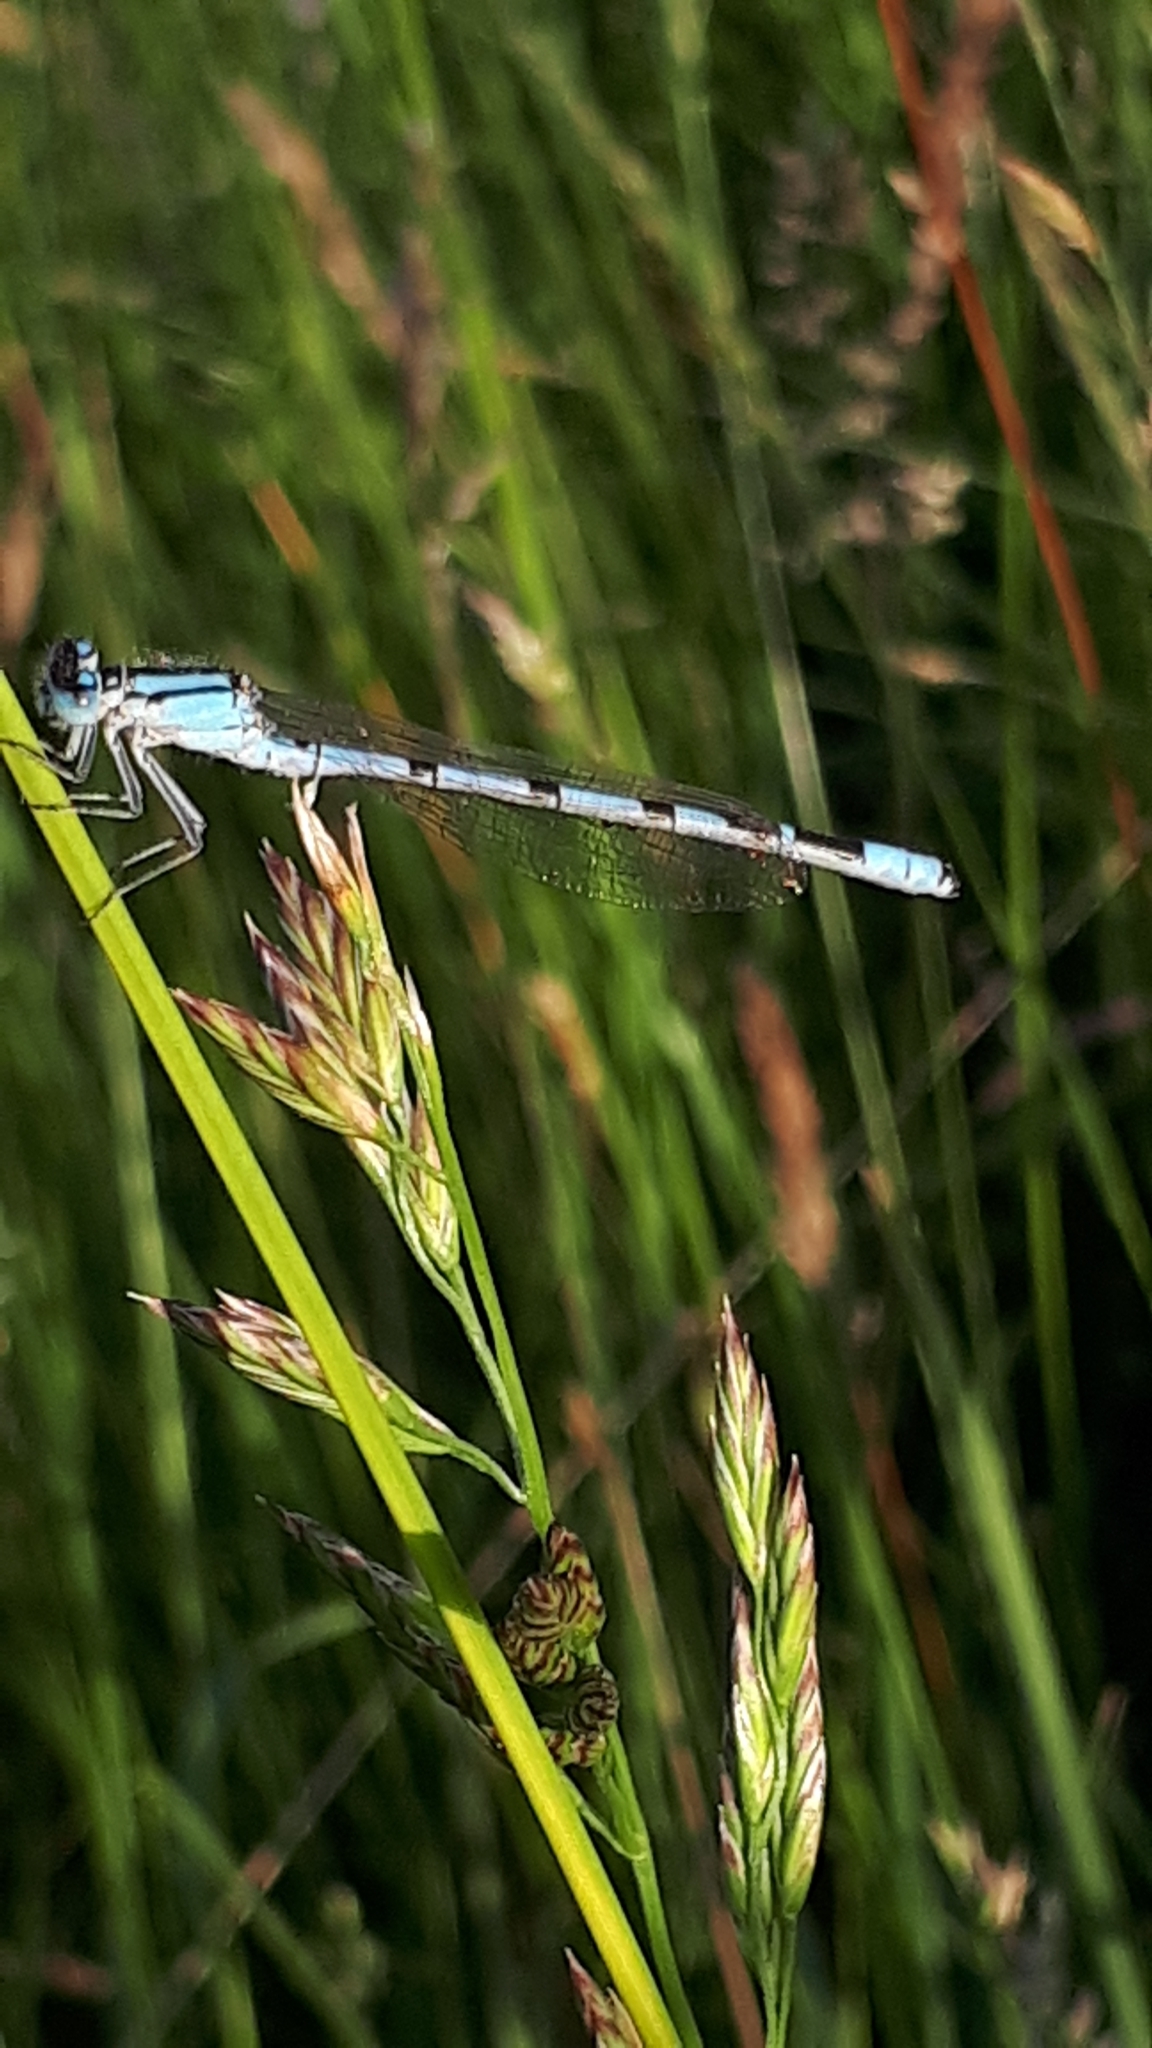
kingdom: Animalia
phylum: Arthropoda
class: Insecta
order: Odonata
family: Coenagrionidae
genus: Enallagma
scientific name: Enallagma cyathigerum
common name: Common blue damselfly
